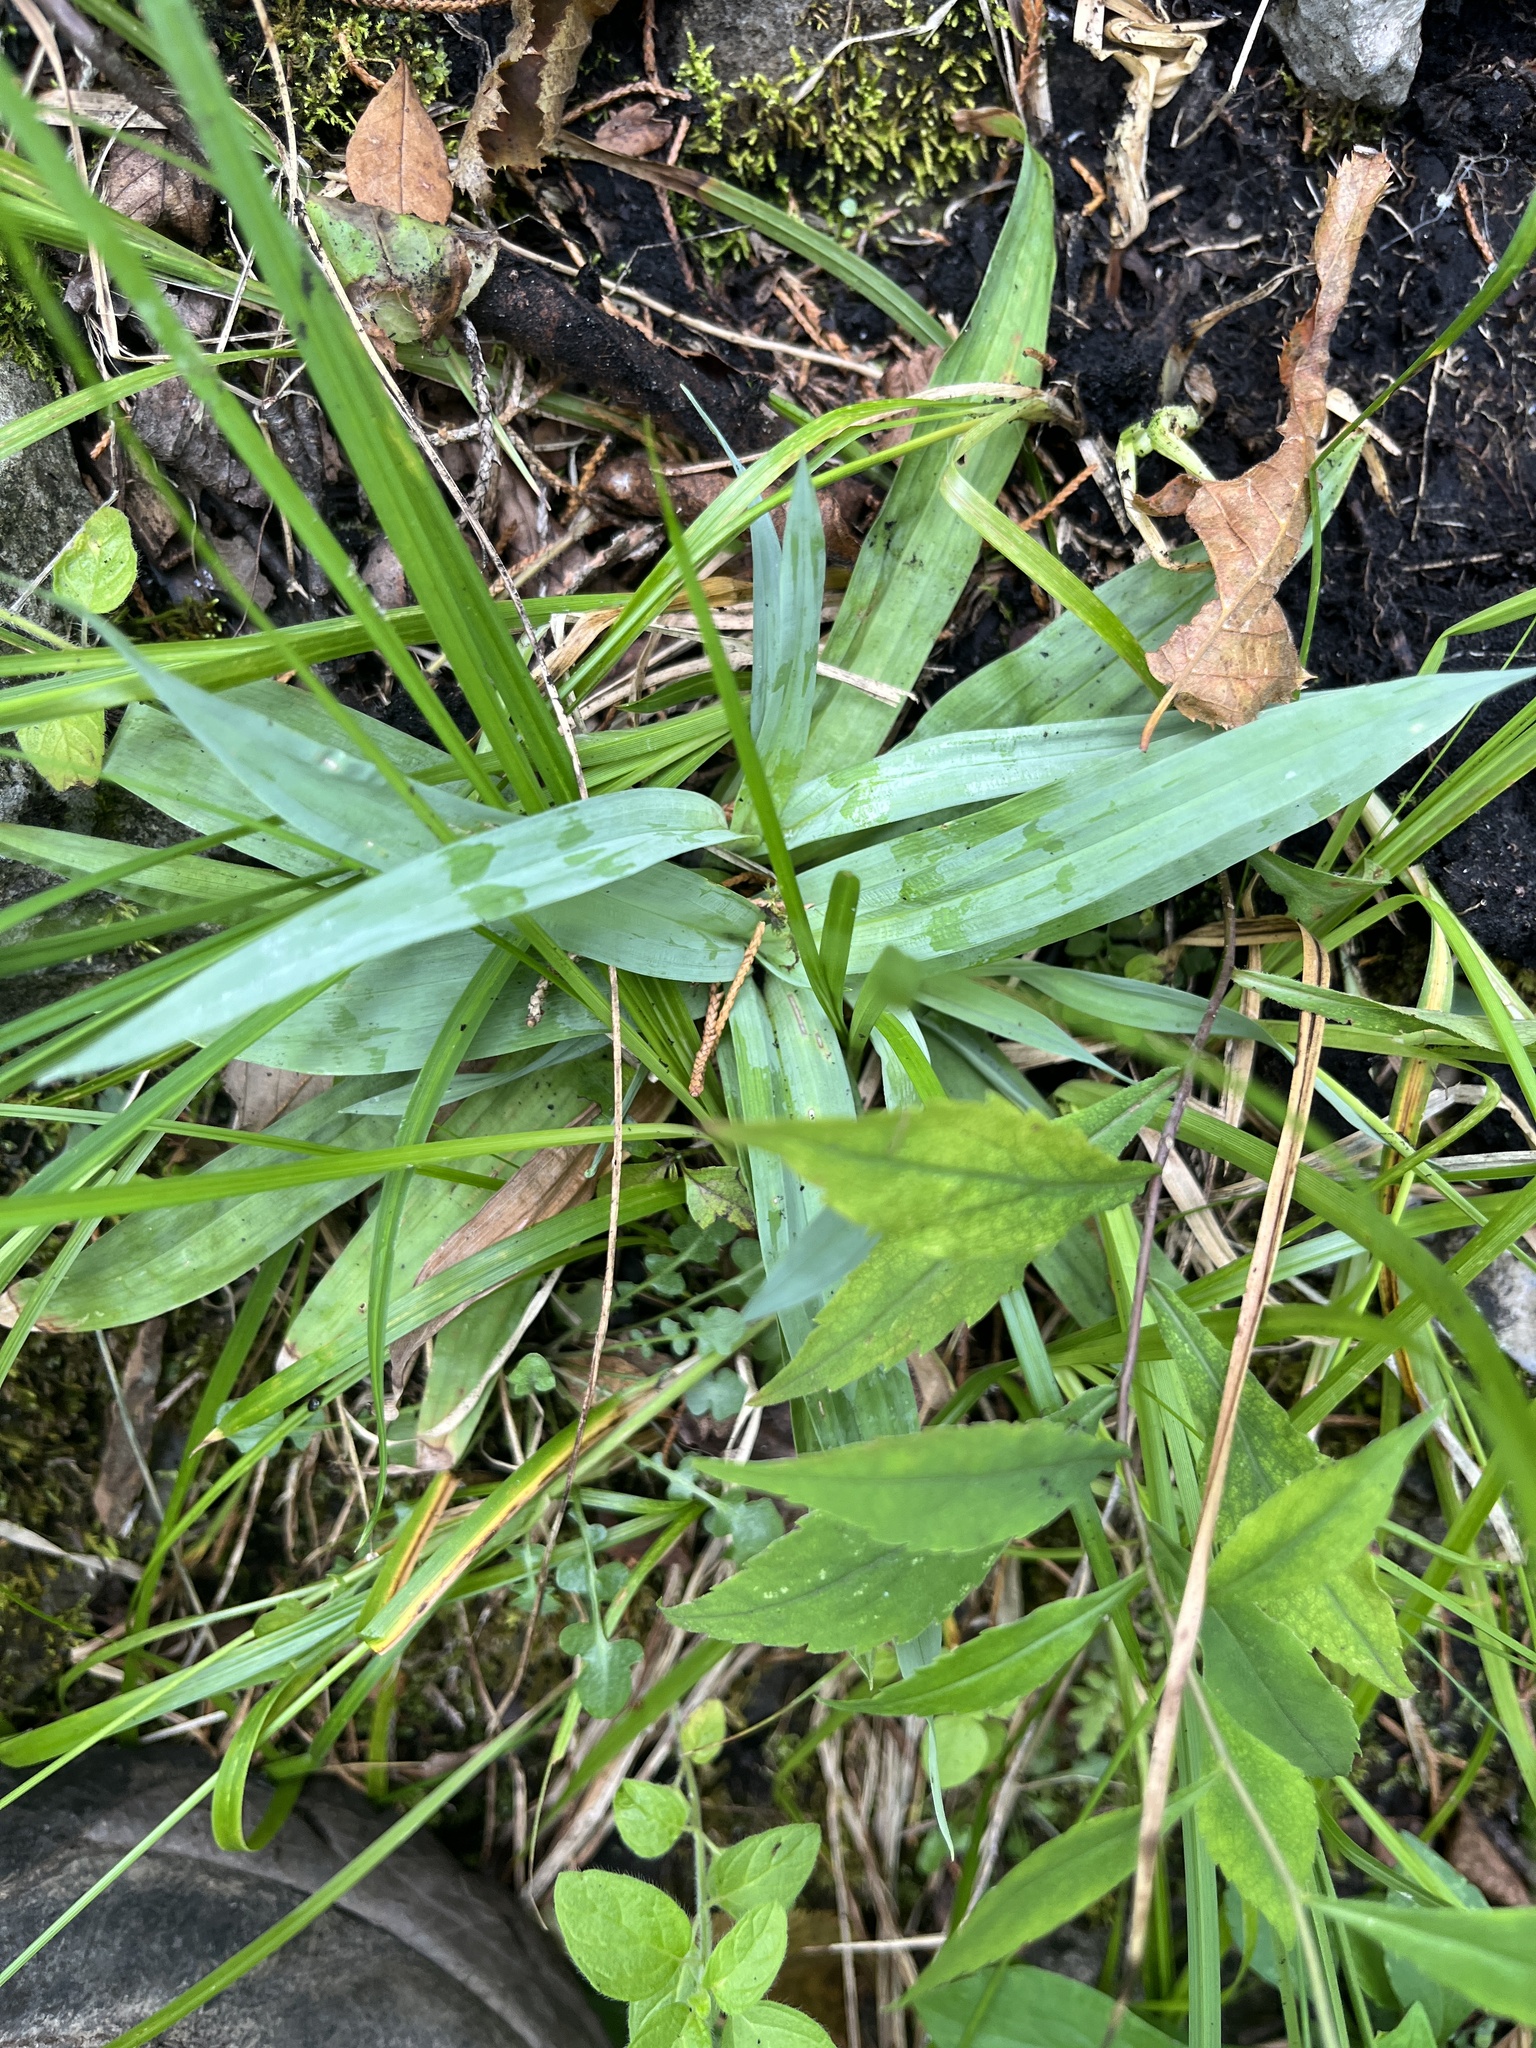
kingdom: Plantae
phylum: Tracheophyta
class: Liliopsida
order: Poales
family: Cyperaceae
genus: Carex
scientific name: Carex platyphylla
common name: Broad-leaved sedge
